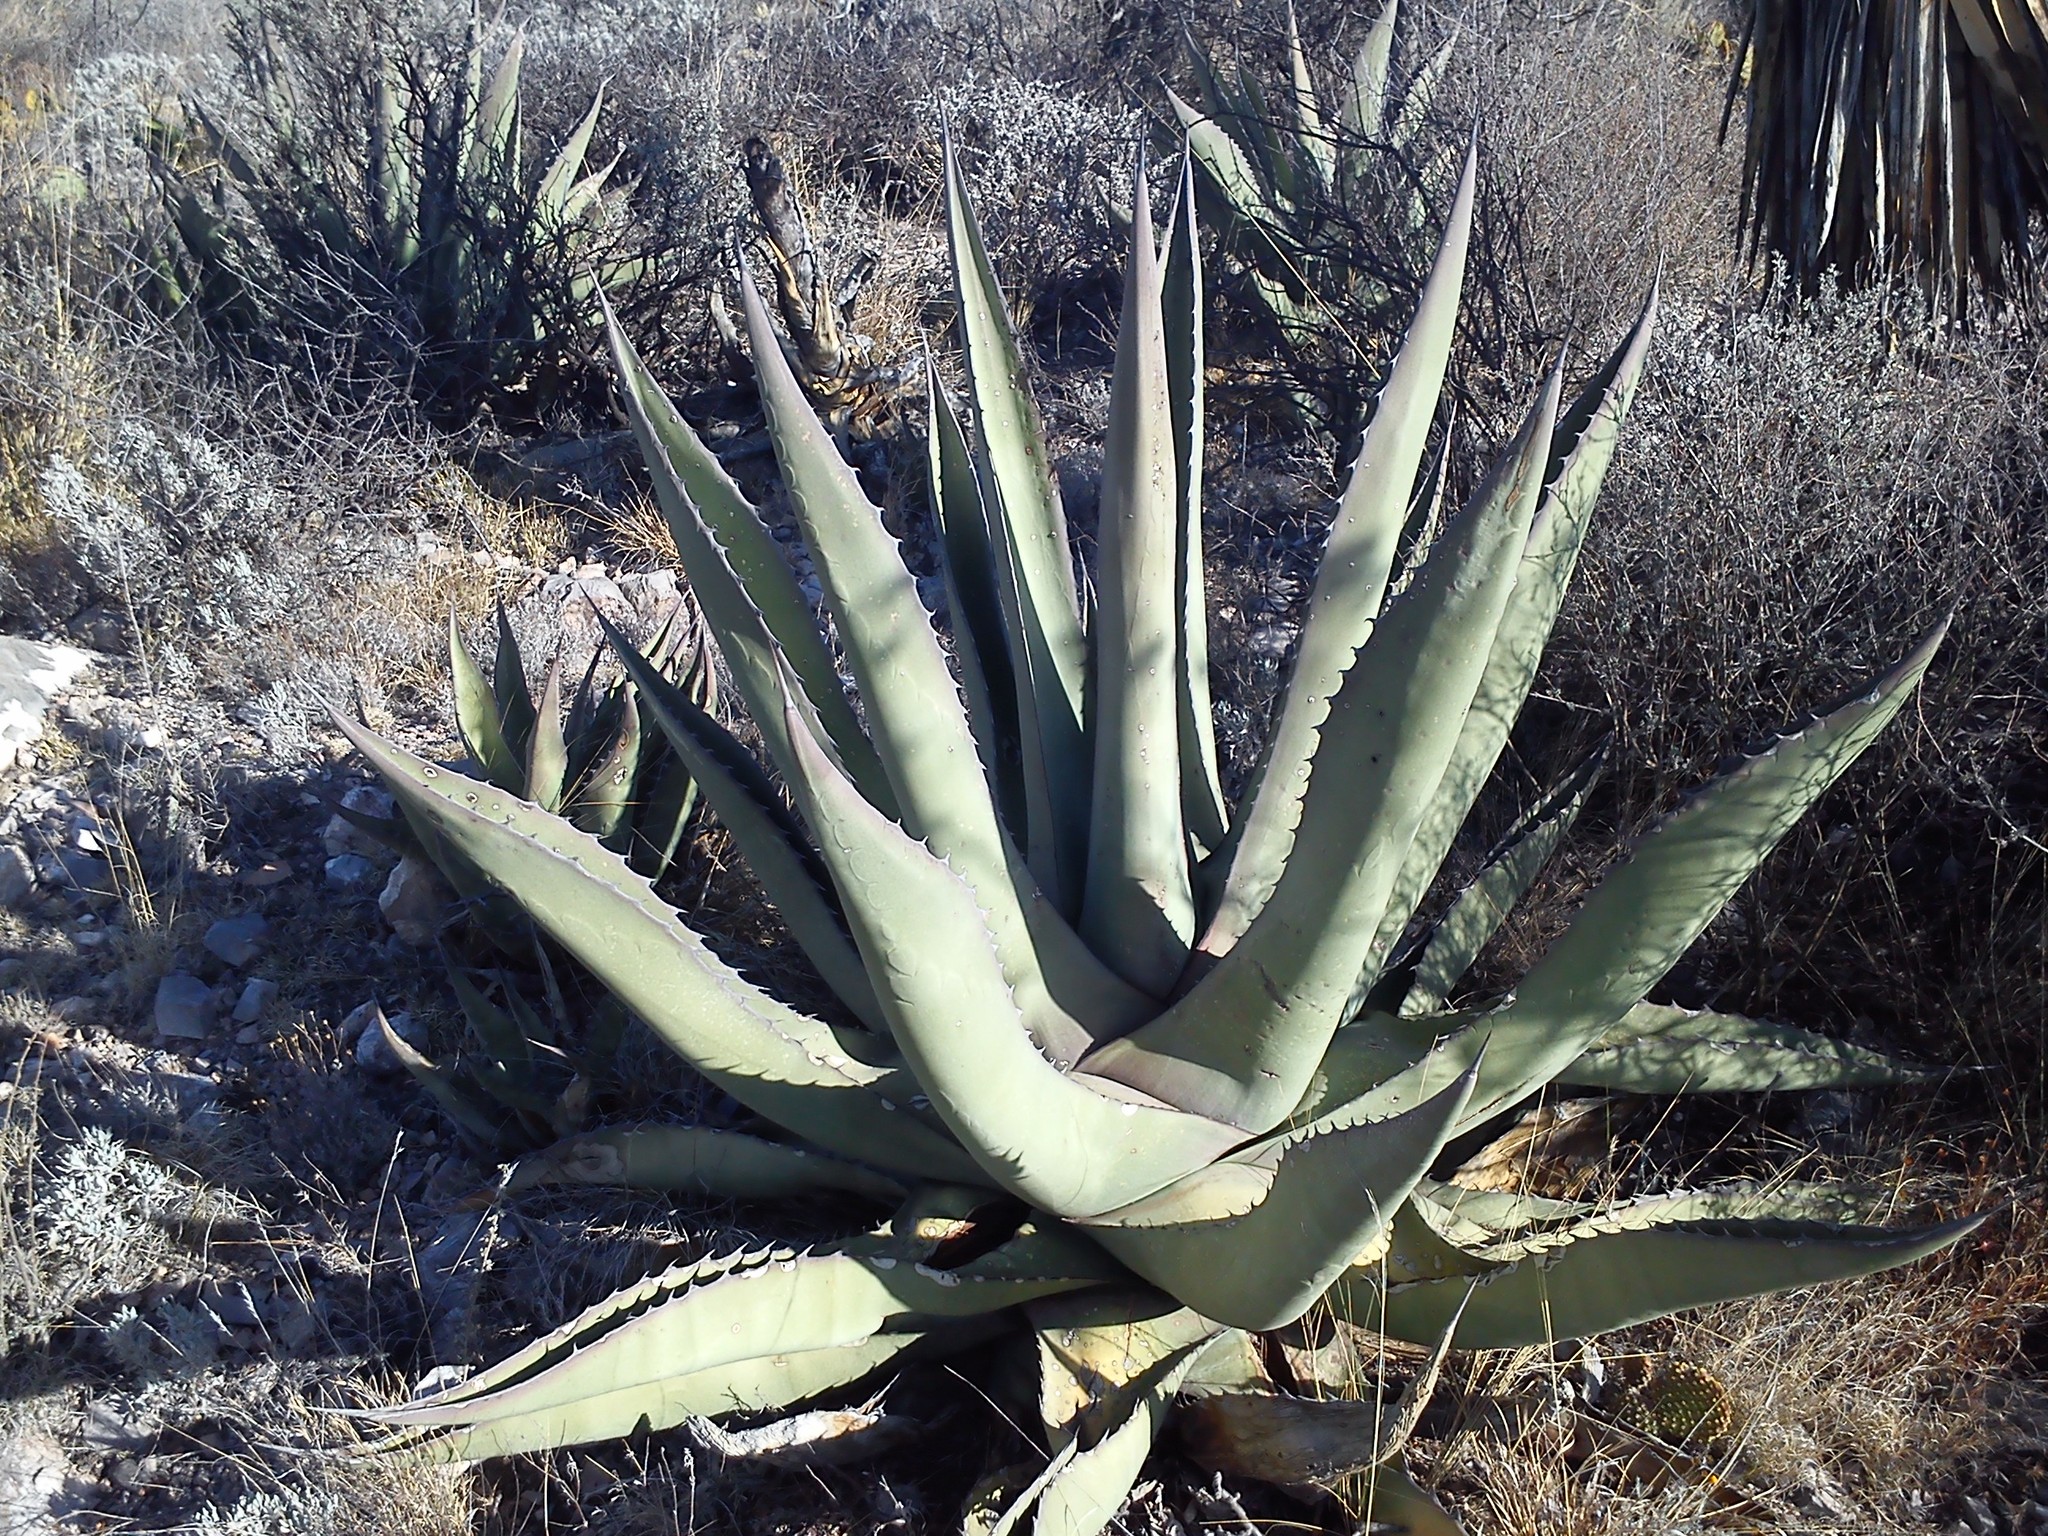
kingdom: Plantae
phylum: Tracheophyta
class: Liliopsida
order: Asparagales
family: Asparagaceae
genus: Agave
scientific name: Agave asperrima
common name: Rough agave
